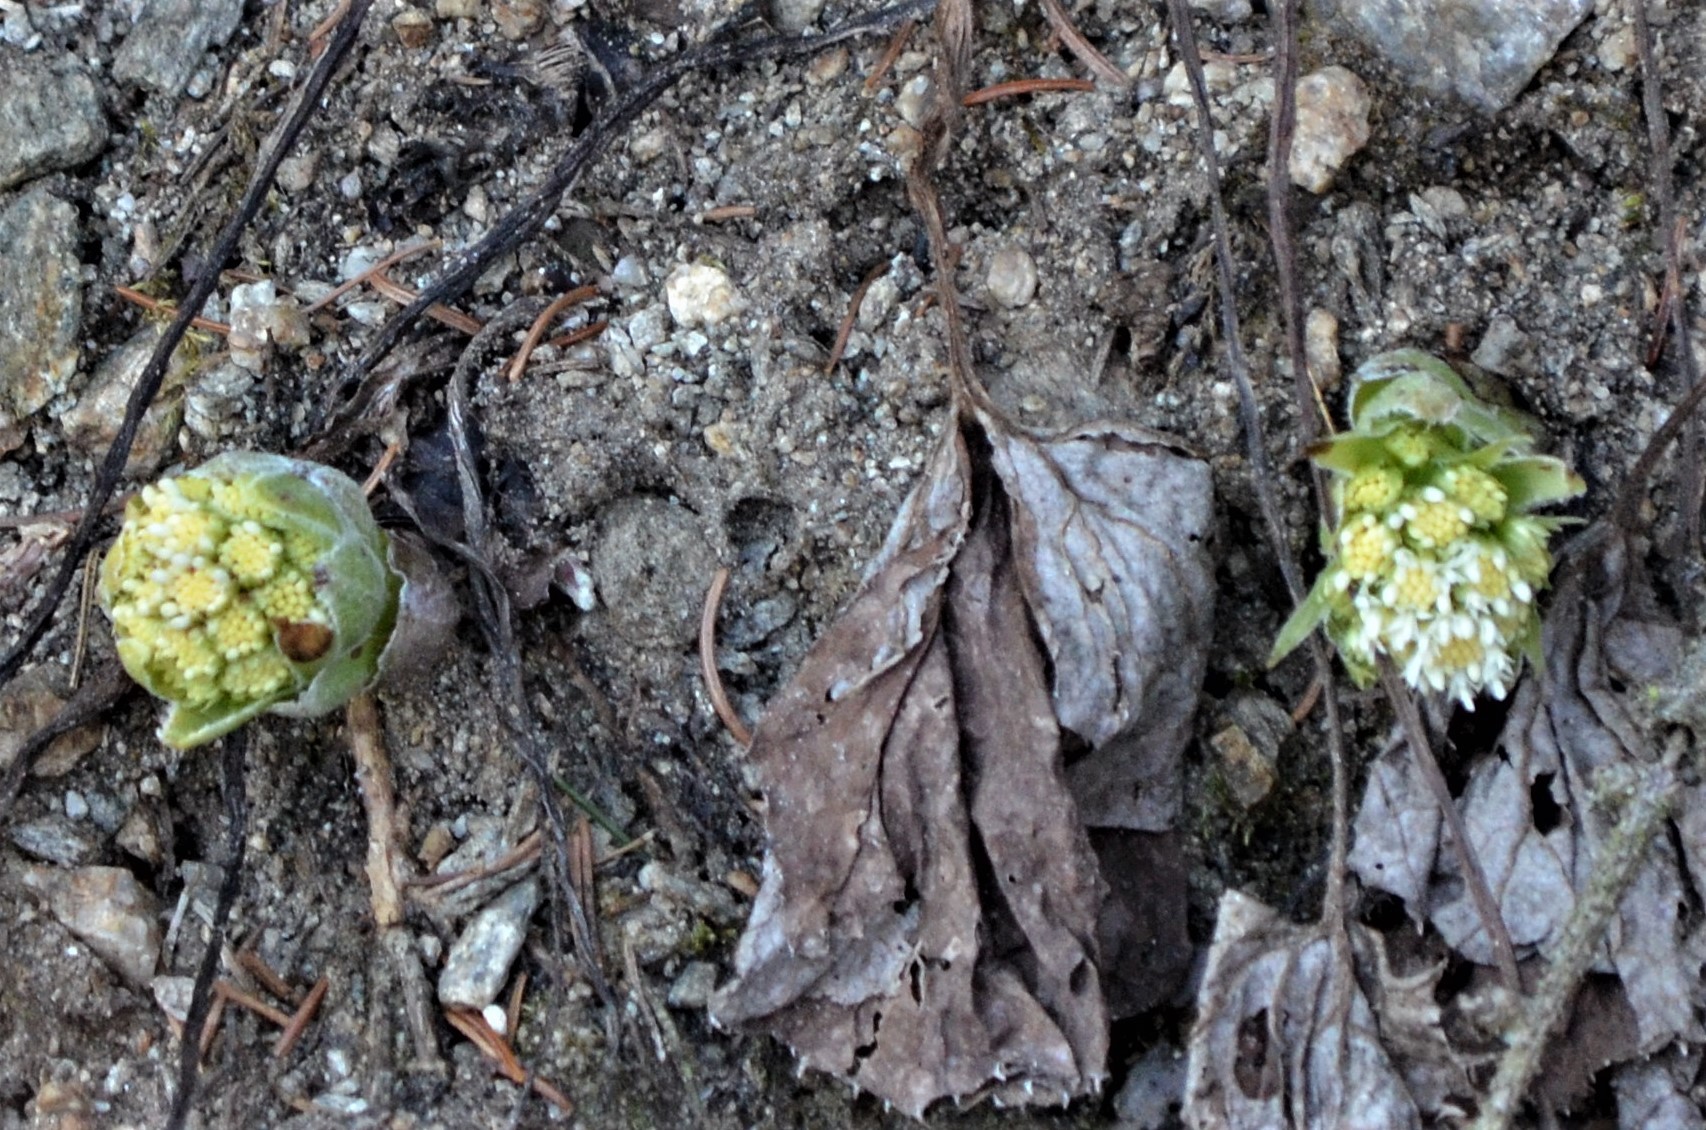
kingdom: Plantae
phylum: Tracheophyta
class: Magnoliopsida
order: Asterales
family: Asteraceae
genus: Petasites
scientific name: Petasites albus
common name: White butterbur
